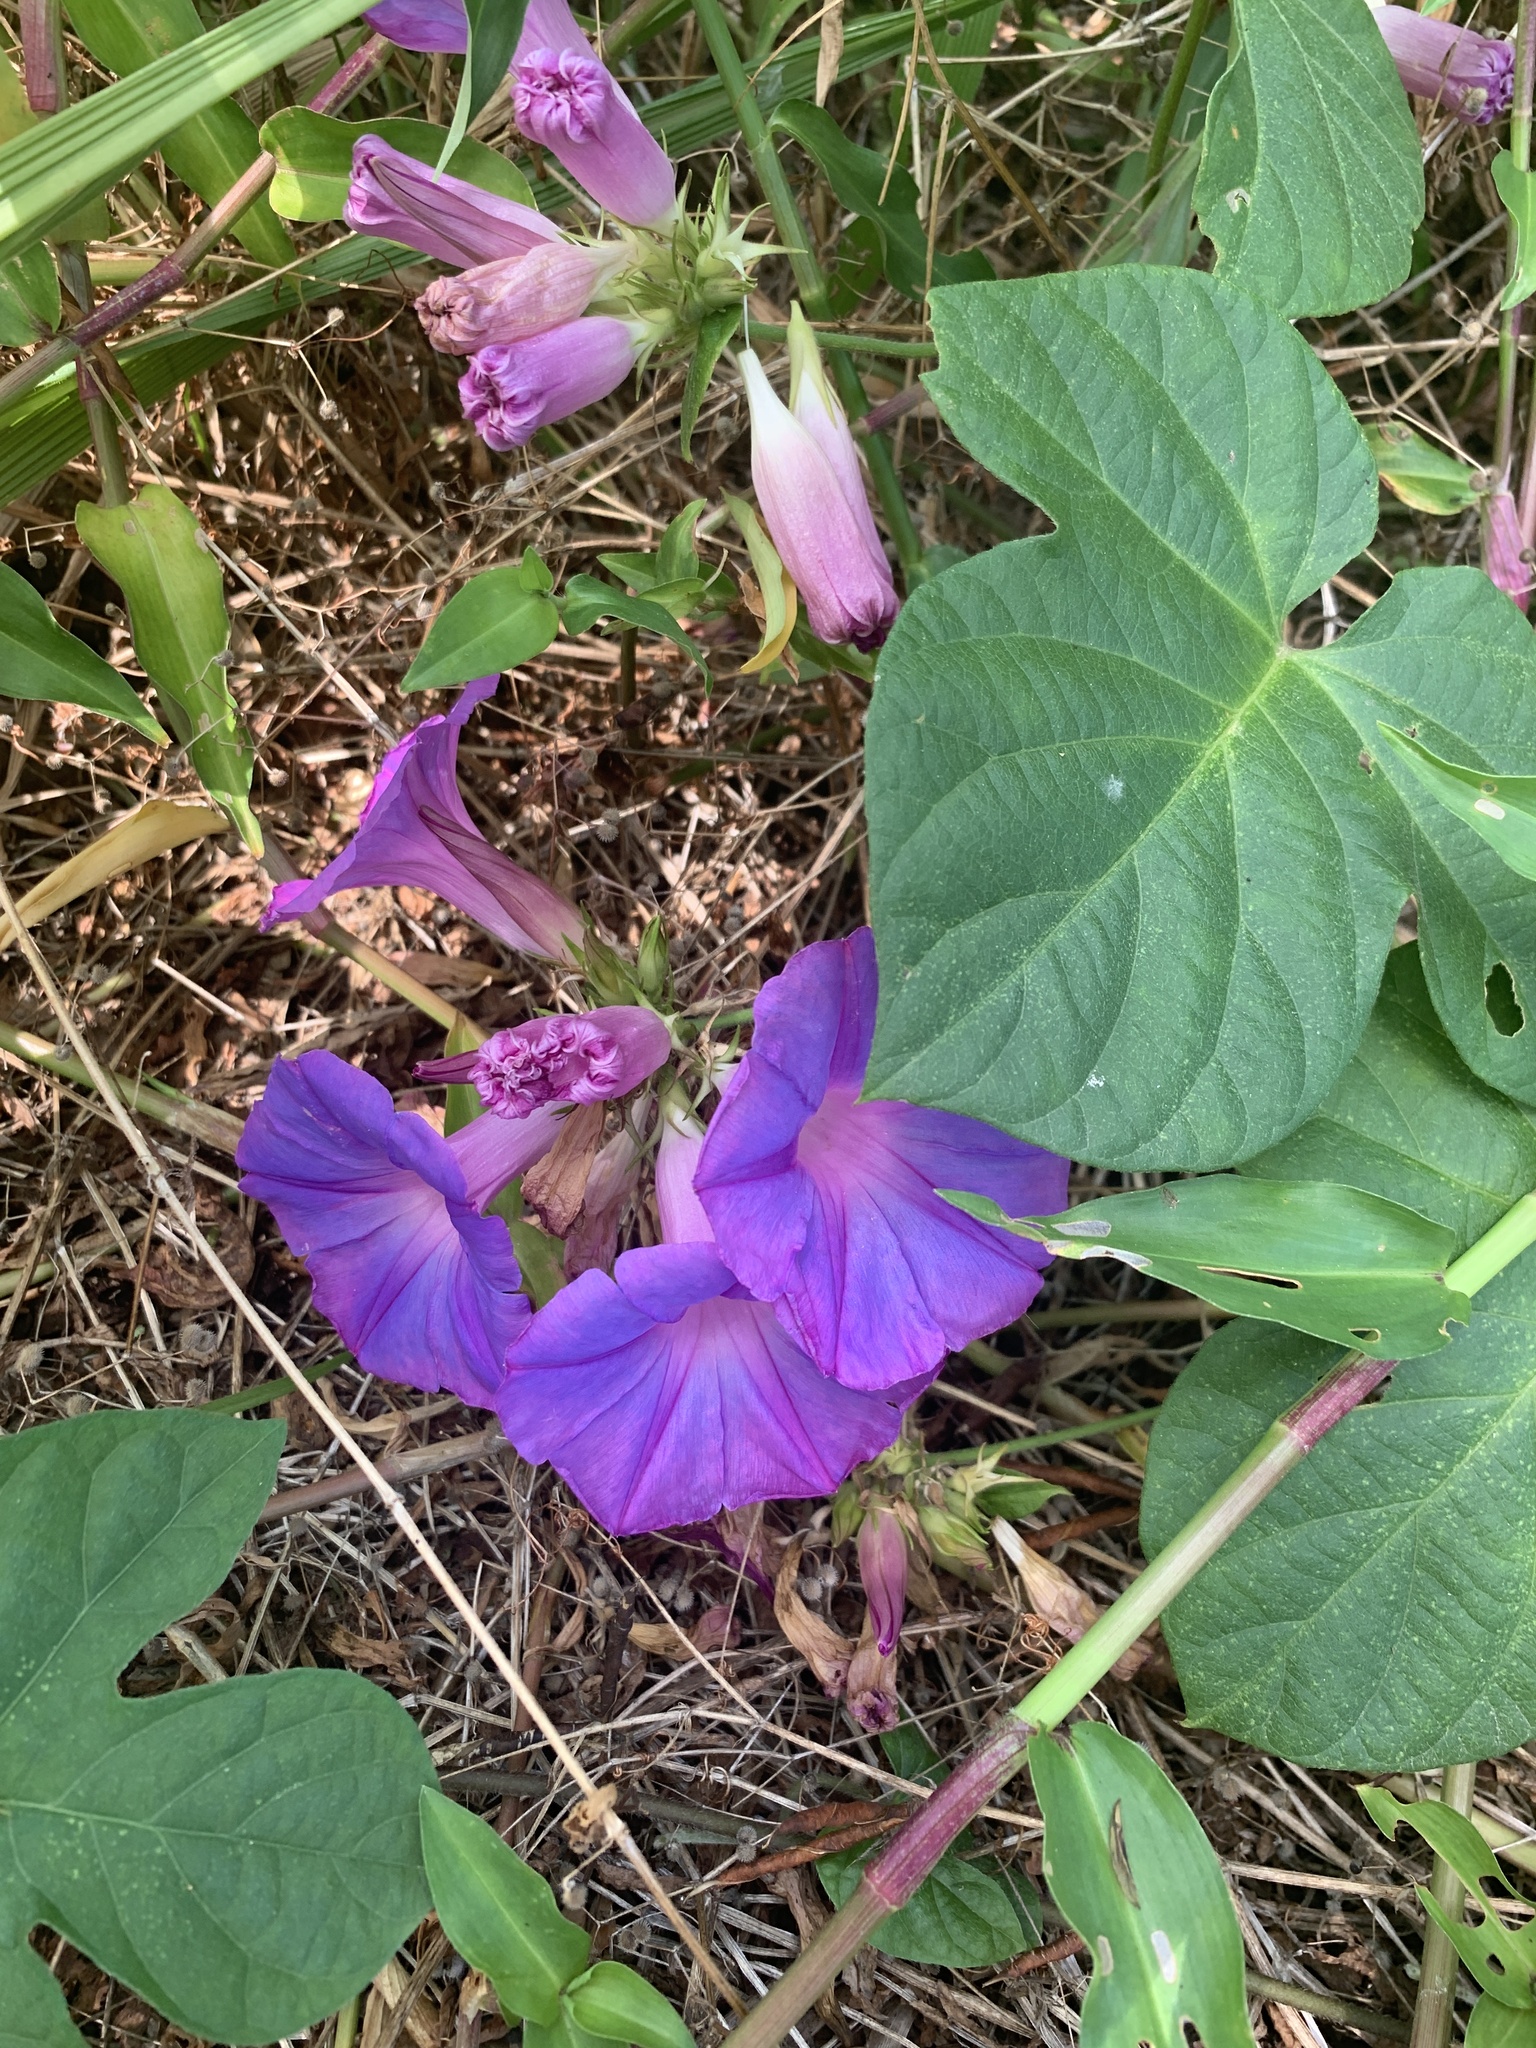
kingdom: Plantae
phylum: Tracheophyta
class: Magnoliopsida
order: Solanales
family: Convolvulaceae
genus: Ipomoea
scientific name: Ipomoea indica
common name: Blue dawnflower
